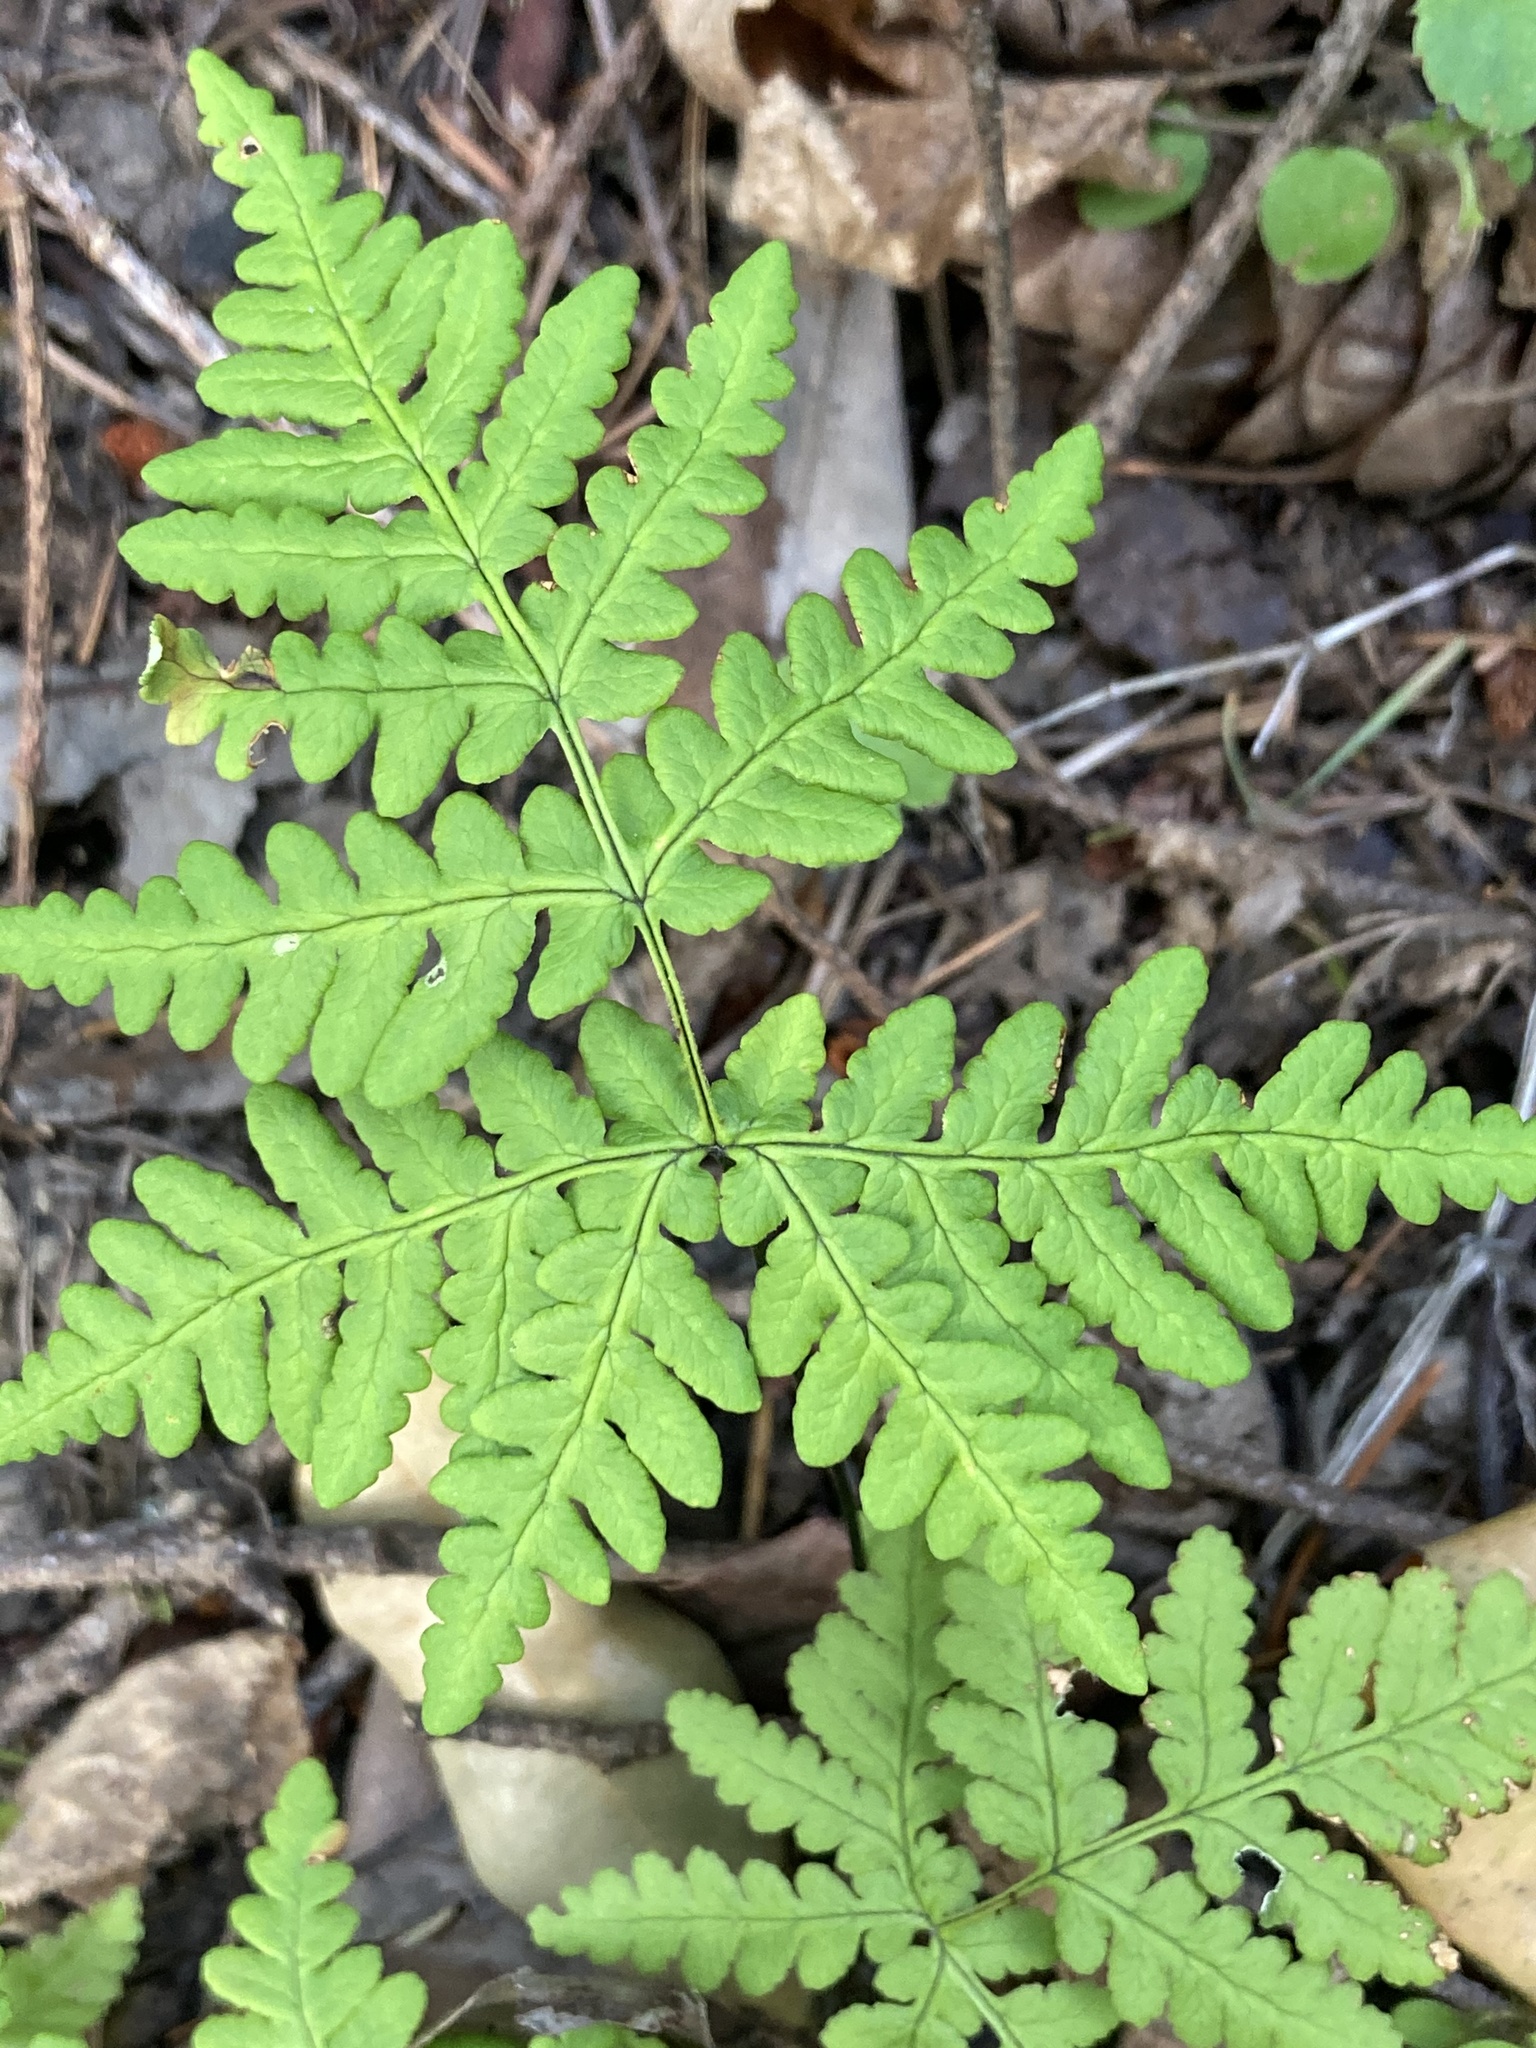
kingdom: Plantae
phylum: Tracheophyta
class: Polypodiopsida
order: Polypodiales
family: Pteridaceae
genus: Pentagramma
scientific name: Pentagramma triangularis
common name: Gold fern
